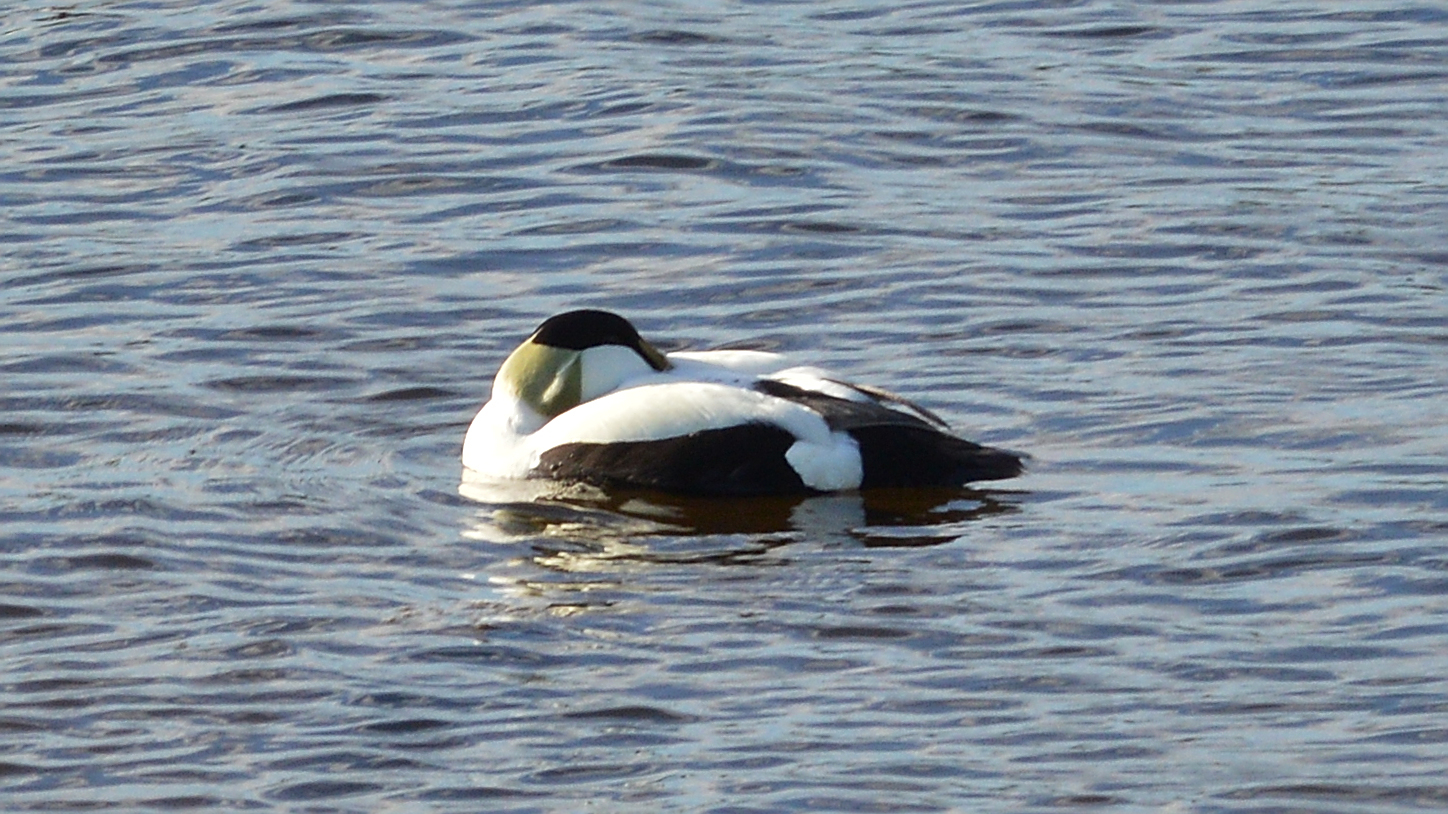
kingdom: Animalia
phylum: Chordata
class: Aves
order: Anseriformes
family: Anatidae
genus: Somateria
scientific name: Somateria mollissima
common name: Common eider
